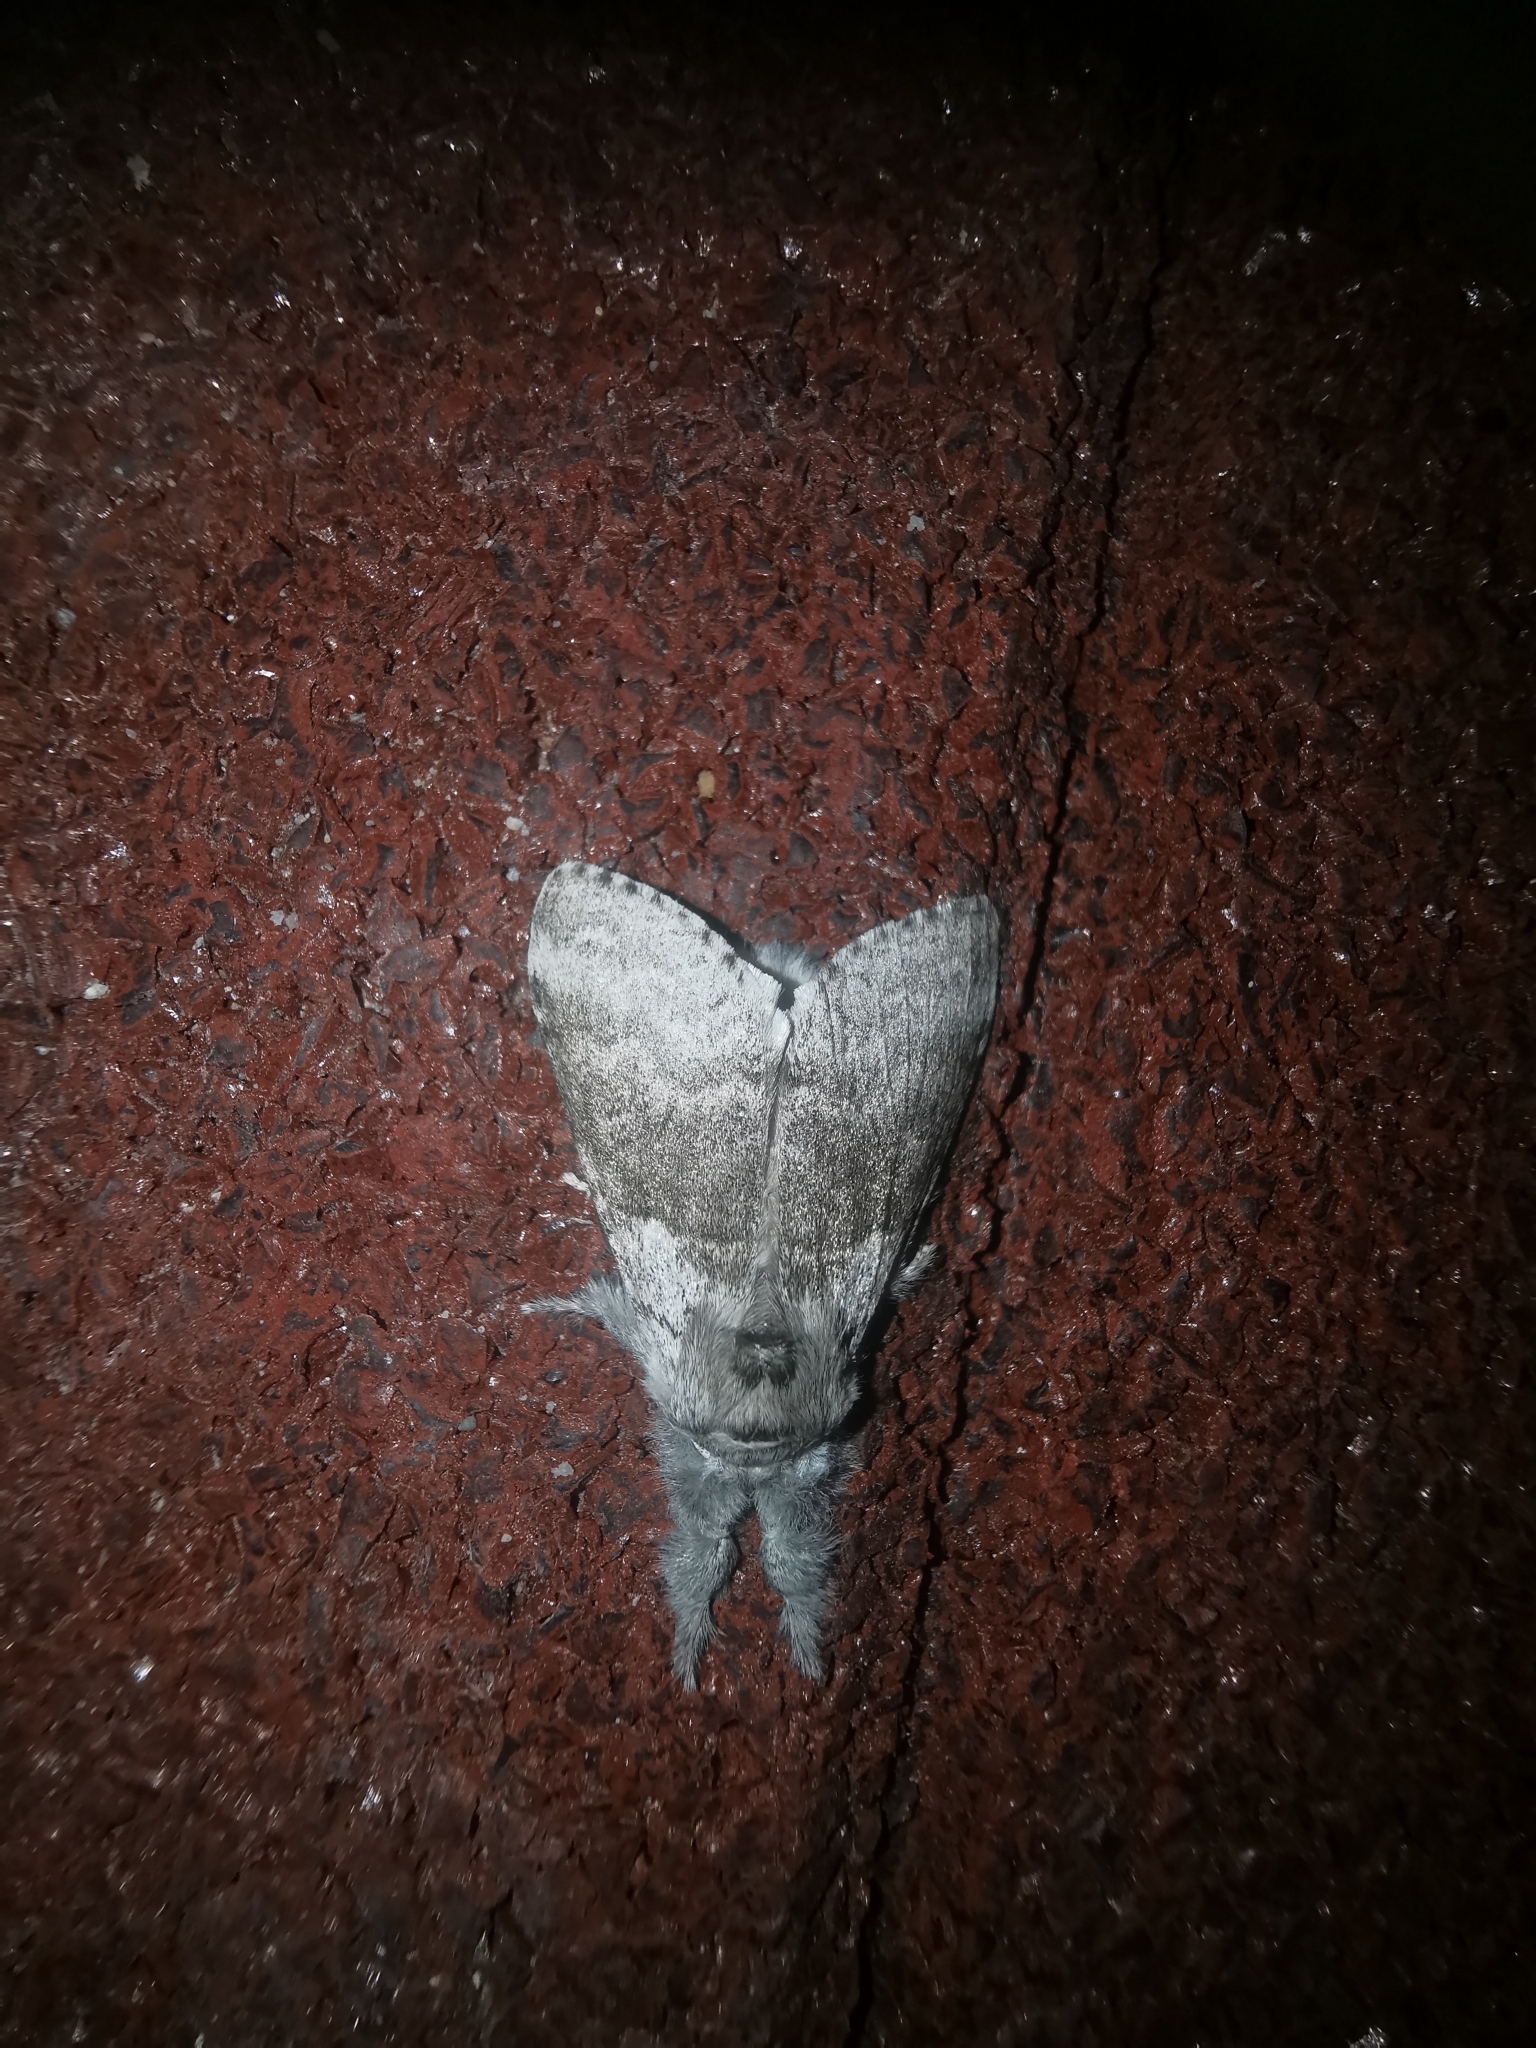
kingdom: Animalia
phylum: Arthropoda
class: Insecta
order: Lepidoptera
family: Erebidae
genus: Calliteara
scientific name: Calliteara pudibunda
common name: Pale tussock
